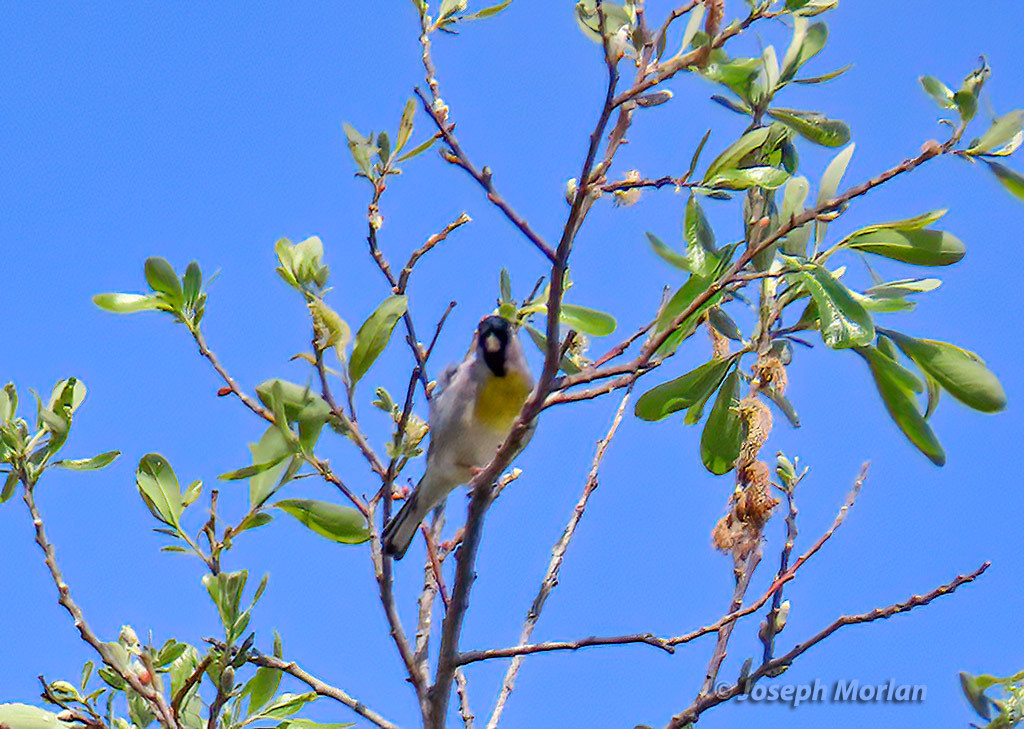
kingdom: Animalia
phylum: Chordata
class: Aves
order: Passeriformes
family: Fringillidae
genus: Spinus
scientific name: Spinus lawrencei
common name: Lawrence's goldfinch
